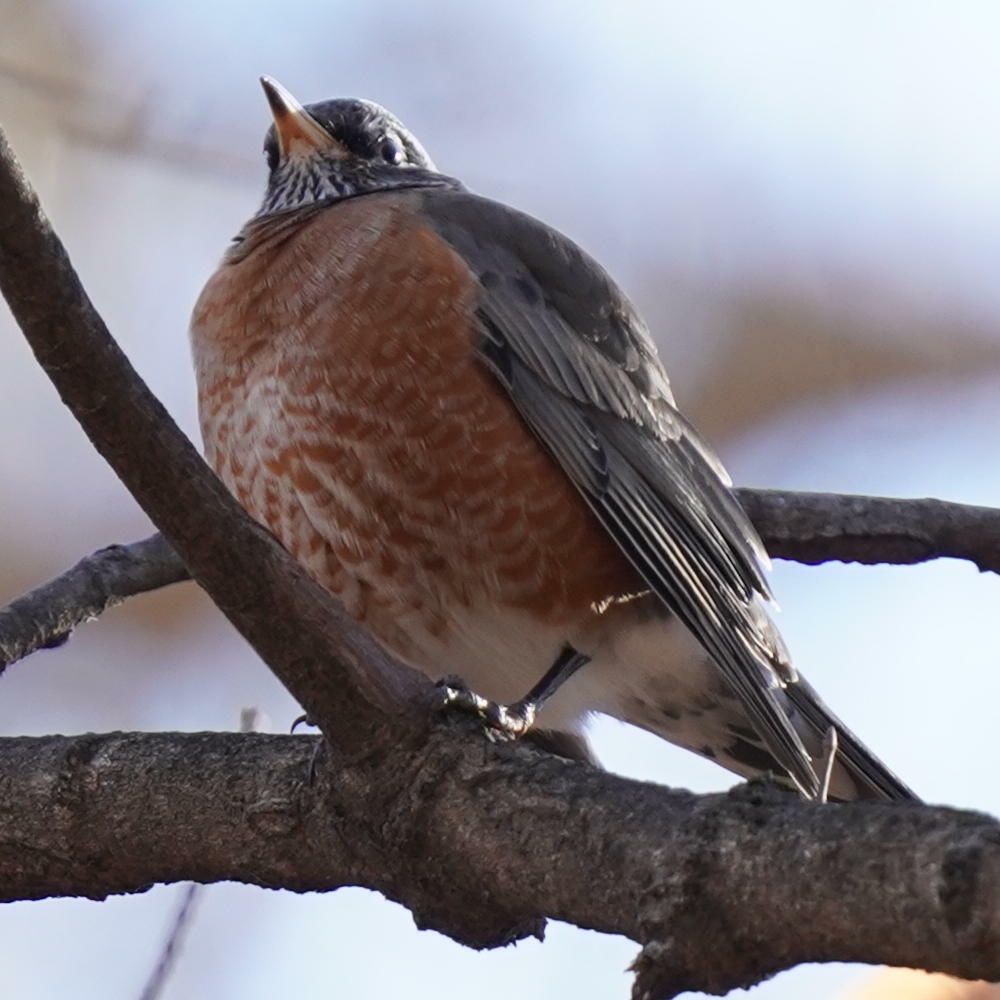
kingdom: Animalia
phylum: Chordata
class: Aves
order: Passeriformes
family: Turdidae
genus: Turdus
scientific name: Turdus migratorius
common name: American robin
